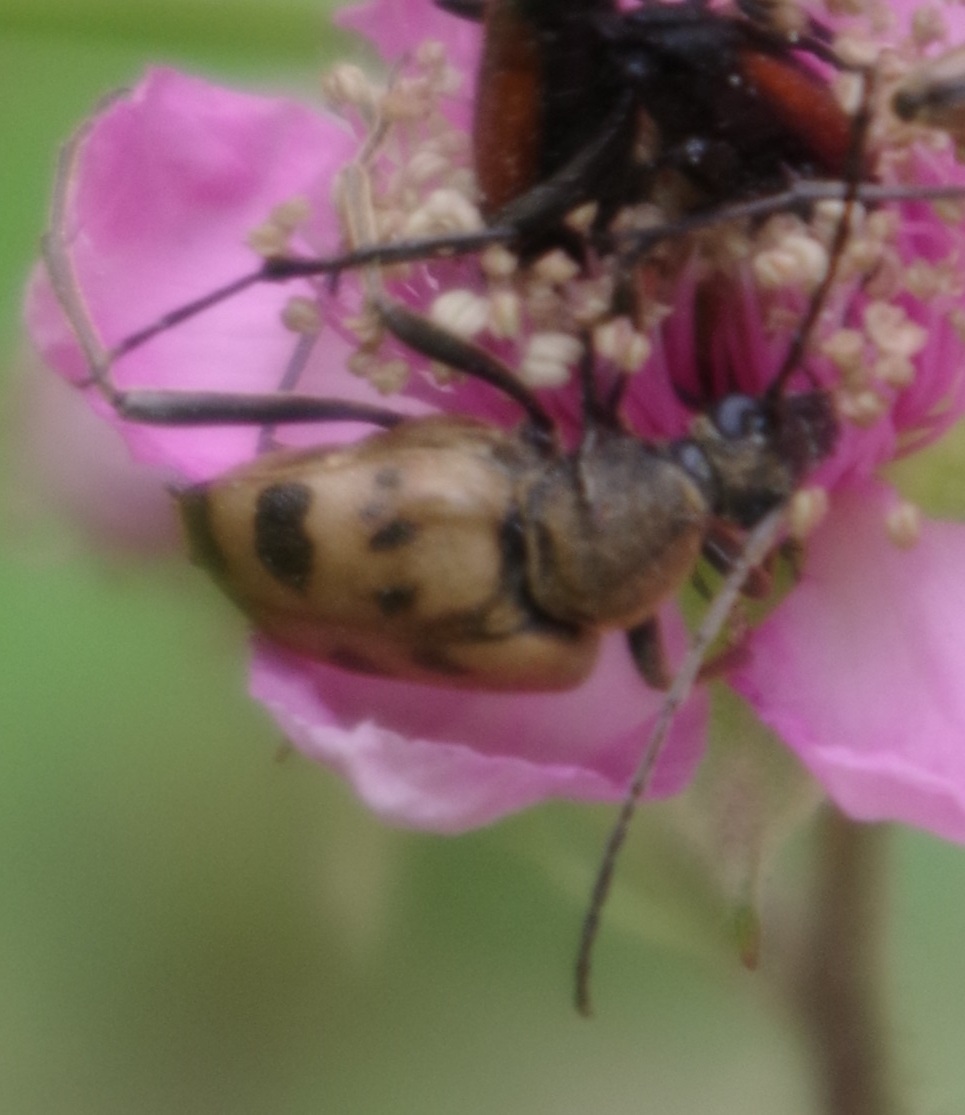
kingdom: Animalia
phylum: Arthropoda
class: Insecta
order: Coleoptera
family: Cerambycidae
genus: Pachytodes
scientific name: Pachytodes cerambyciformis
